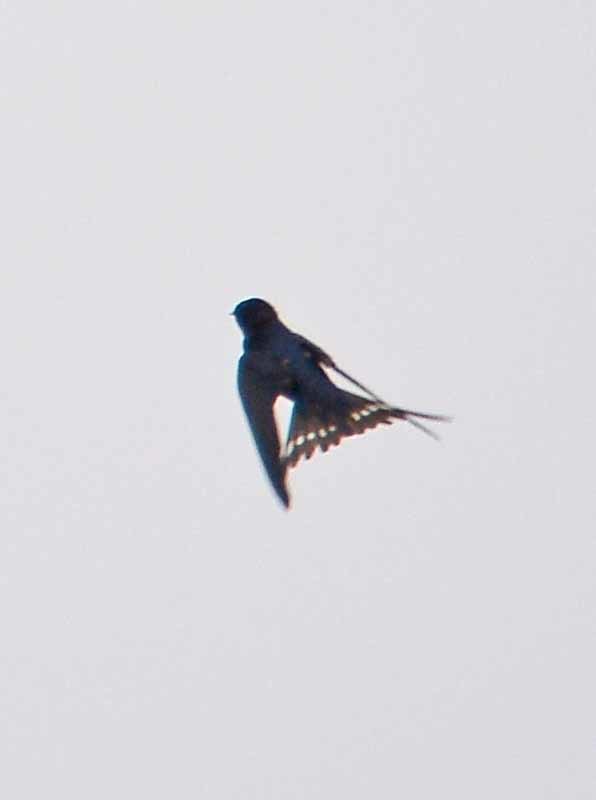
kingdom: Animalia
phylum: Chordata
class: Aves
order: Passeriformes
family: Hirundinidae
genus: Hirundo
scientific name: Hirundo rustica
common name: Barn swallow
